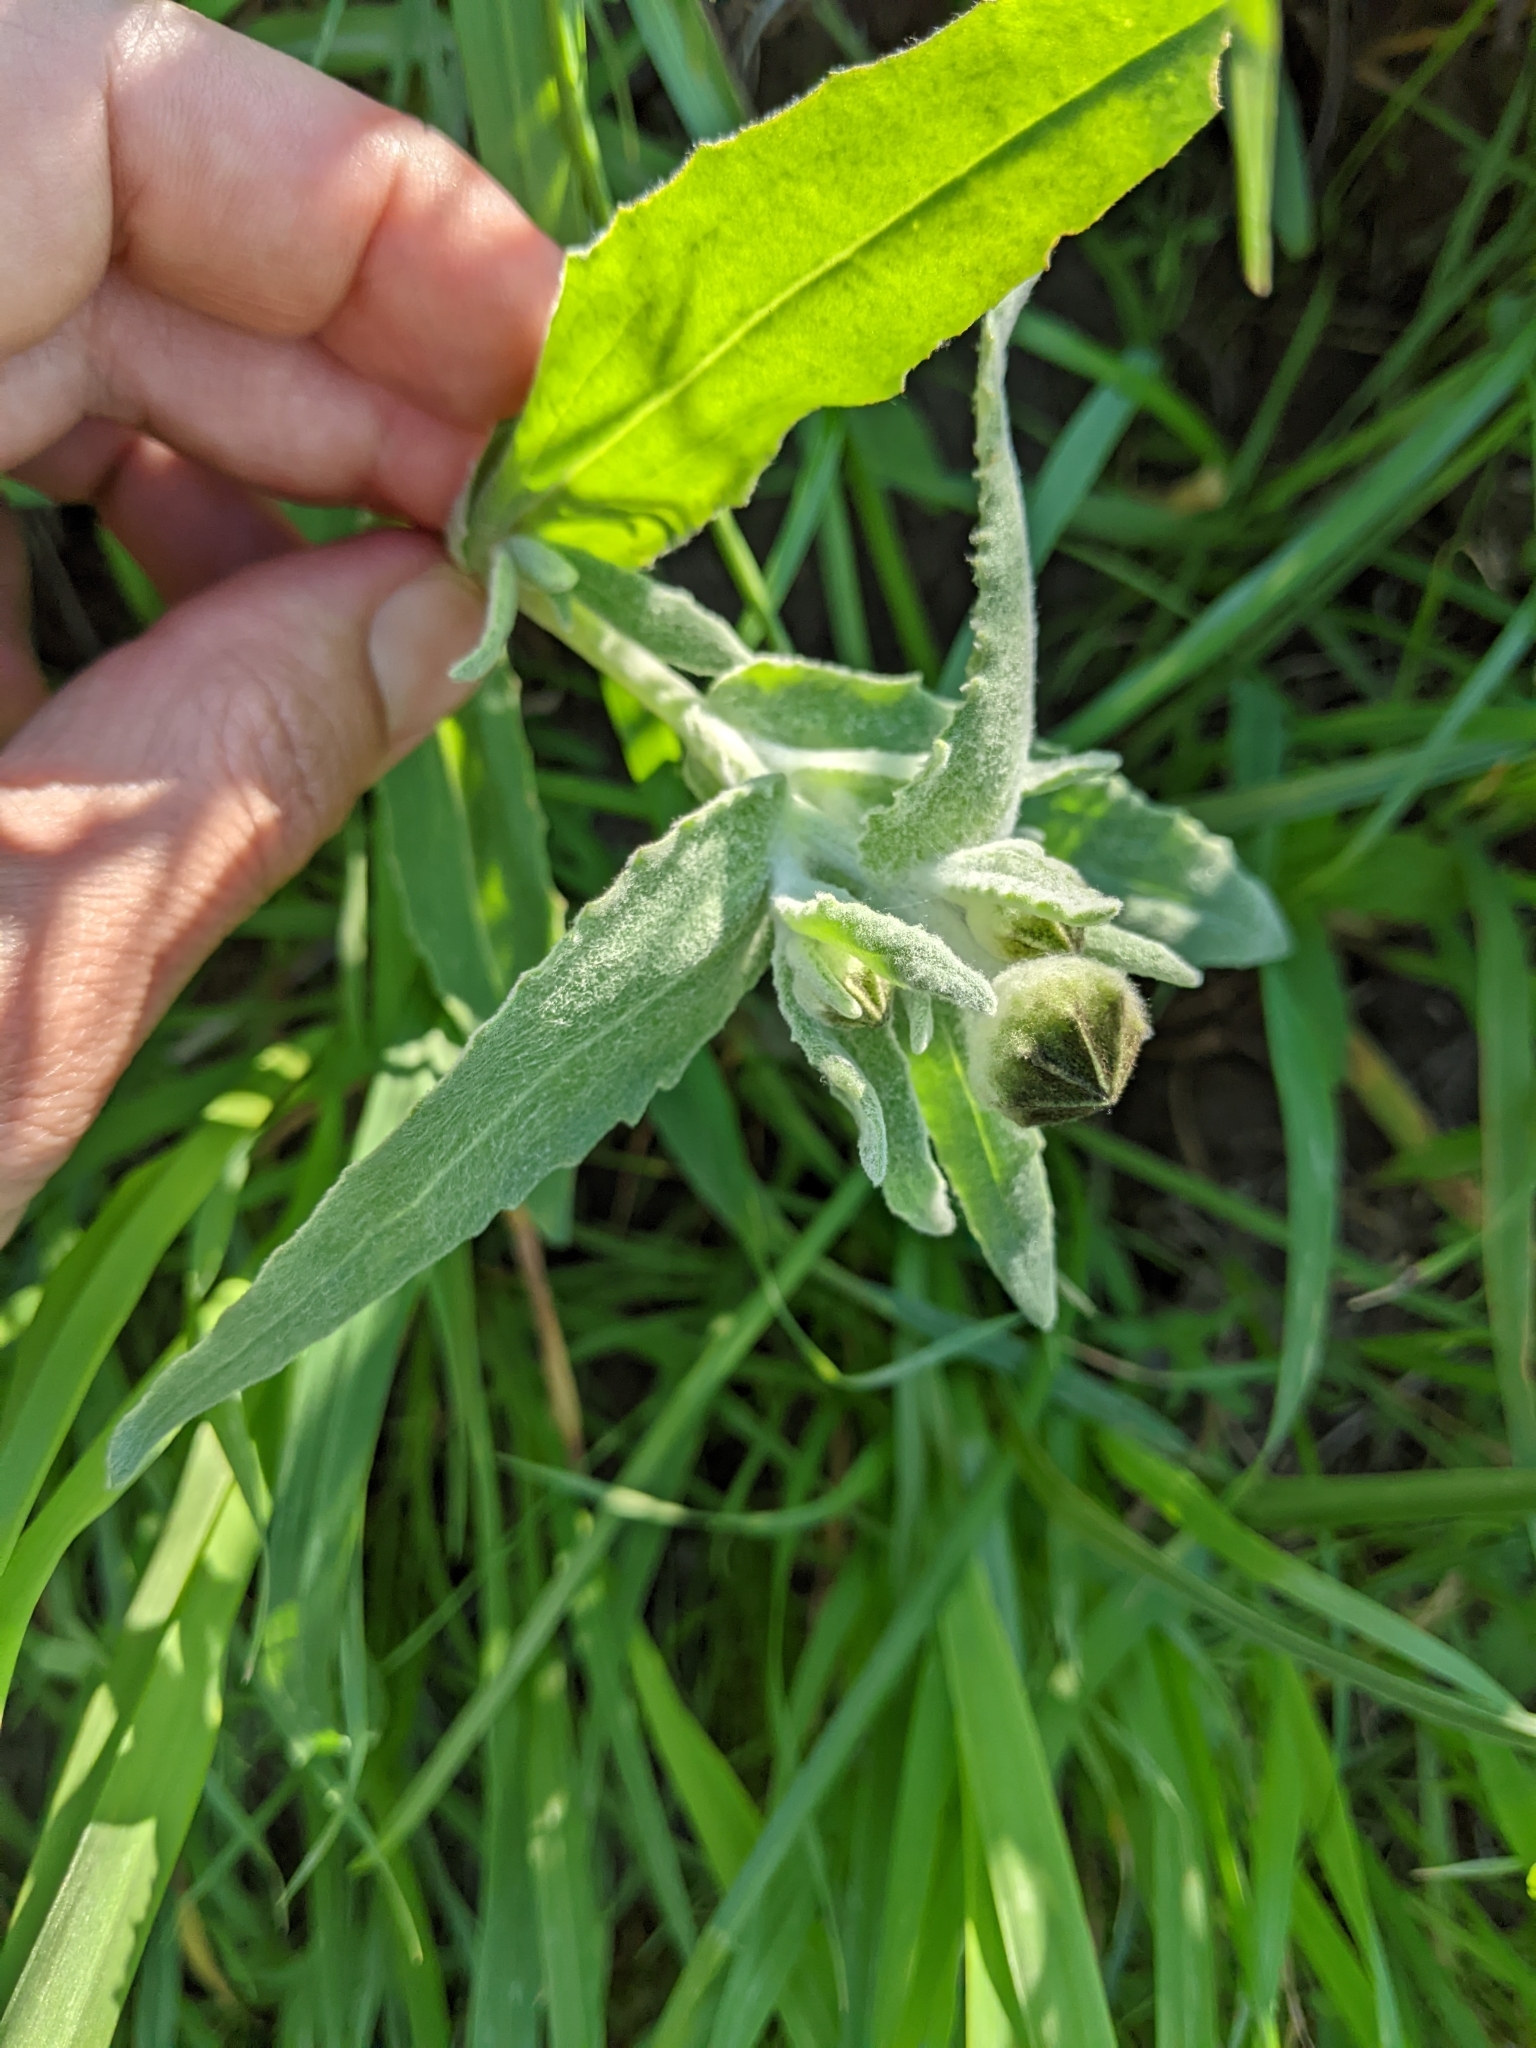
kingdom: Plantae
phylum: Tracheophyta
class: Magnoliopsida
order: Asterales
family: Asteraceae
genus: Monolopia
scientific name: Monolopia major
